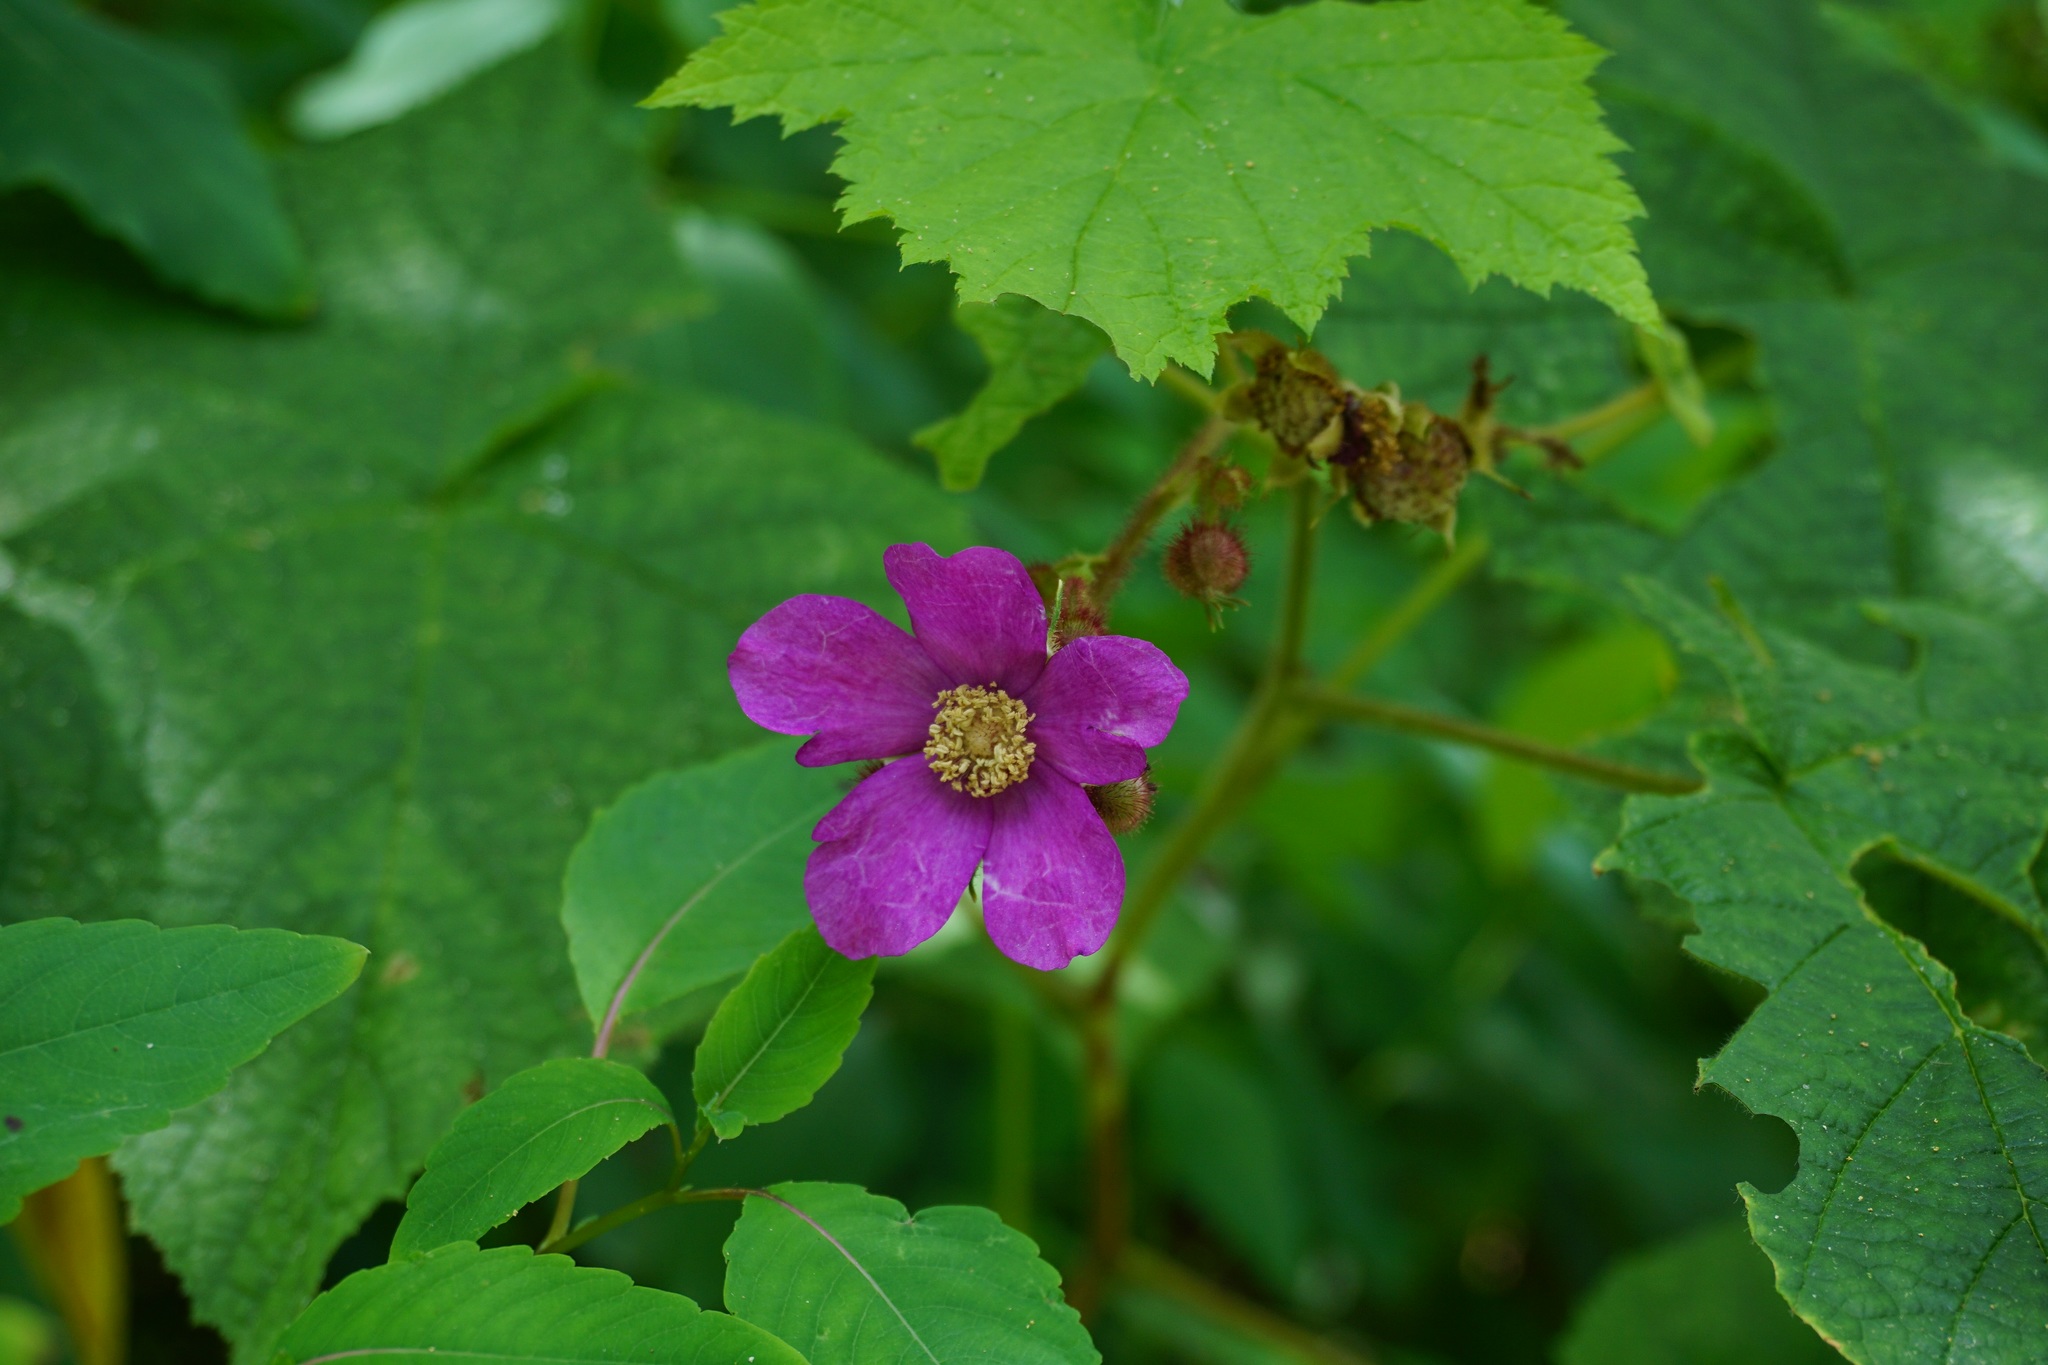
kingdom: Plantae
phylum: Tracheophyta
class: Magnoliopsida
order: Rosales
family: Rosaceae
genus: Rubus
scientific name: Rubus odoratus
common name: Purple-flowered raspberry
